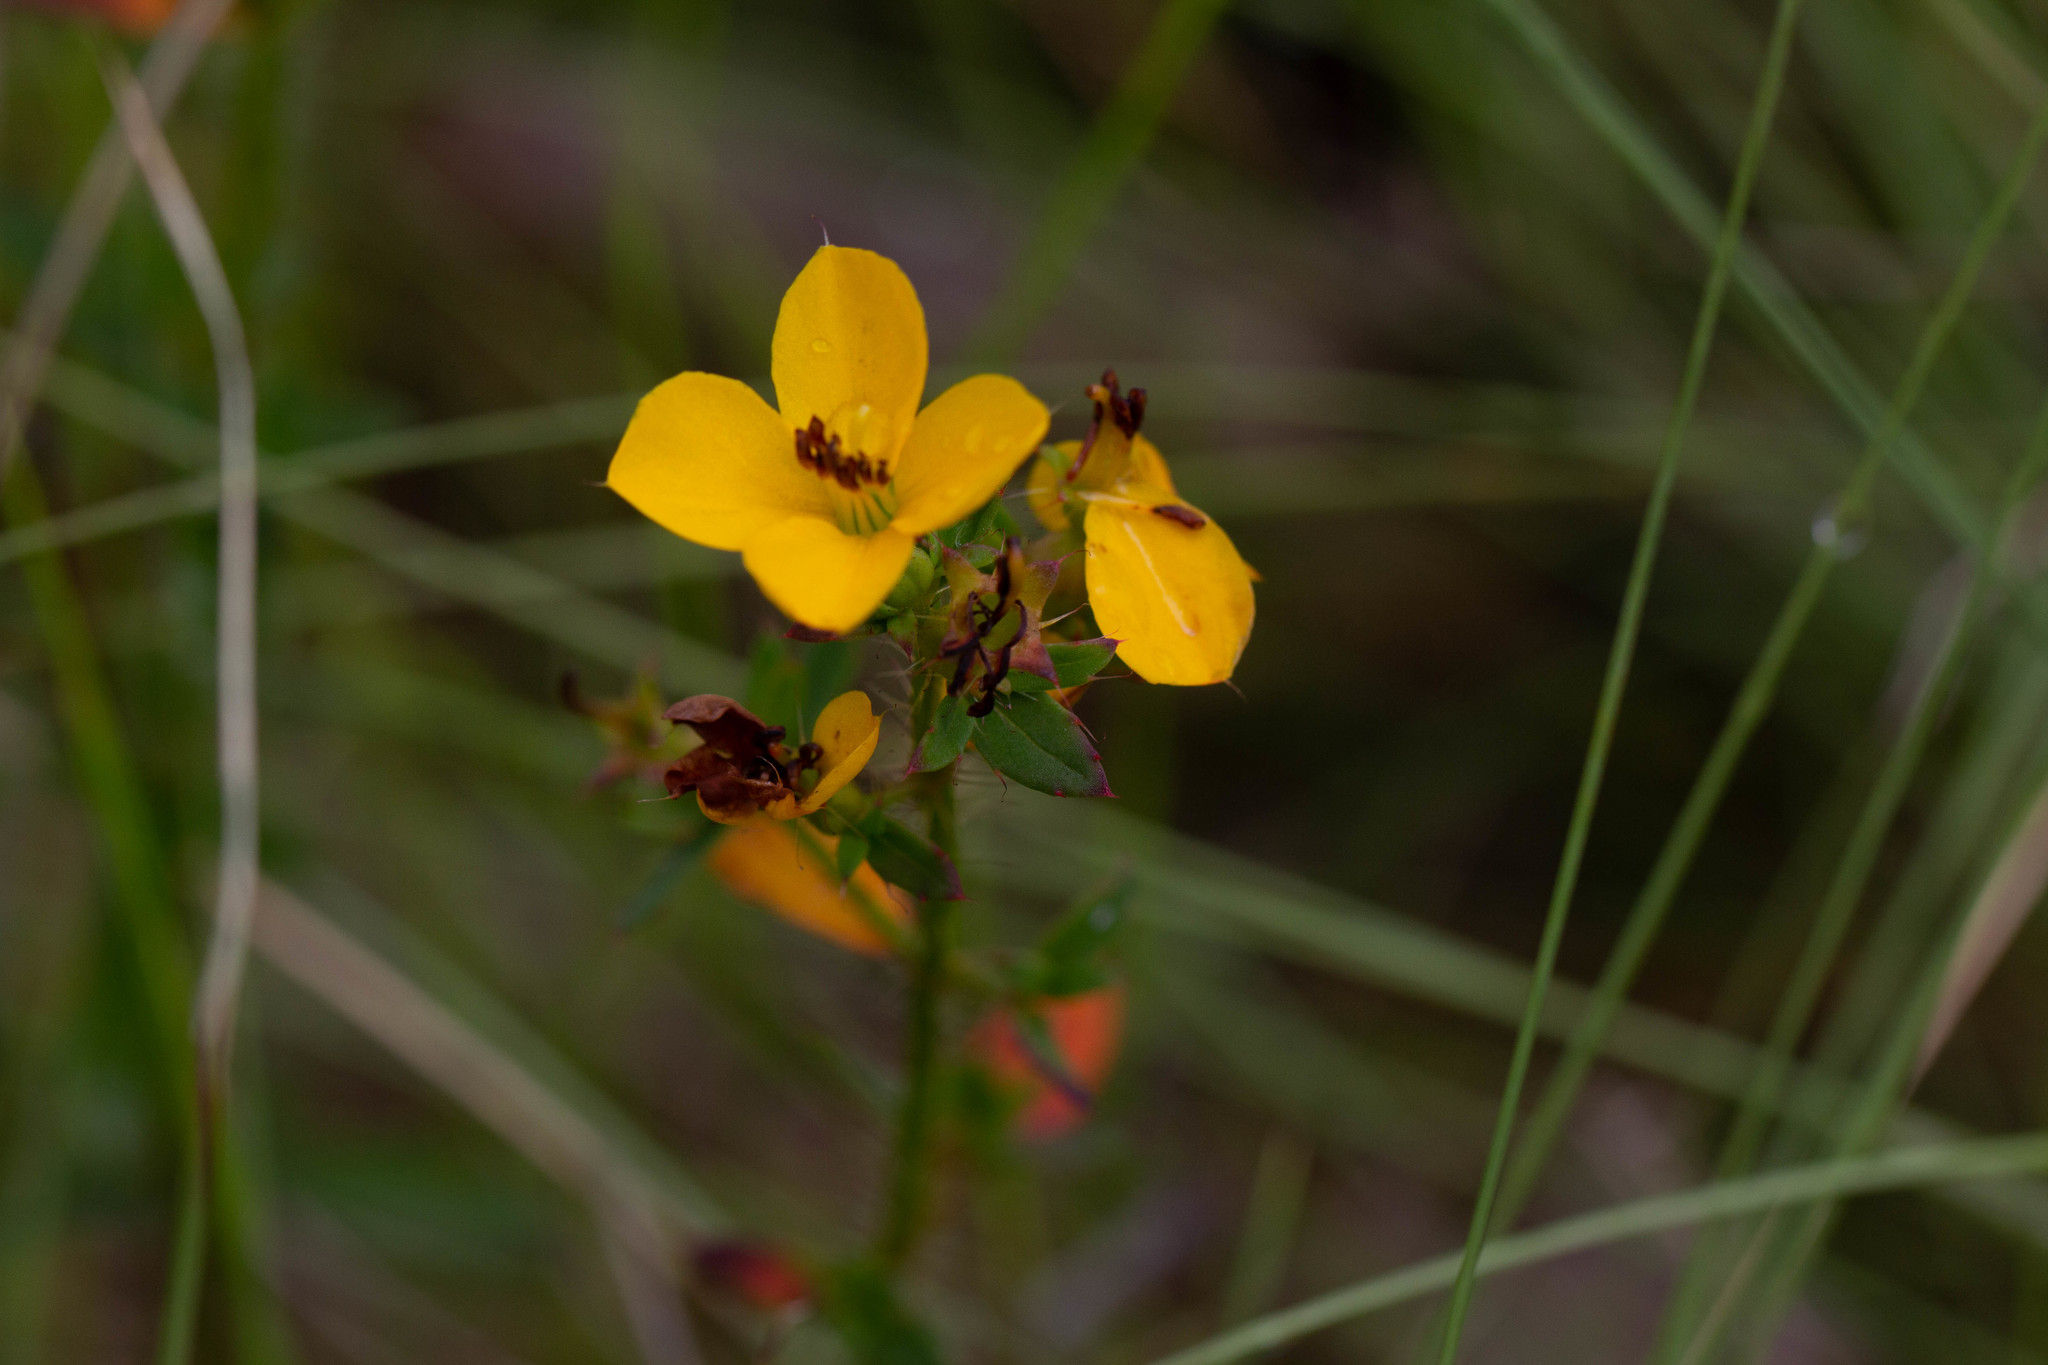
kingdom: Plantae
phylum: Tracheophyta
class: Magnoliopsida
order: Myrtales
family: Melastomataceae
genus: Rhexia
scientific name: Rhexia lutea
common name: Golden meadow-beauty
